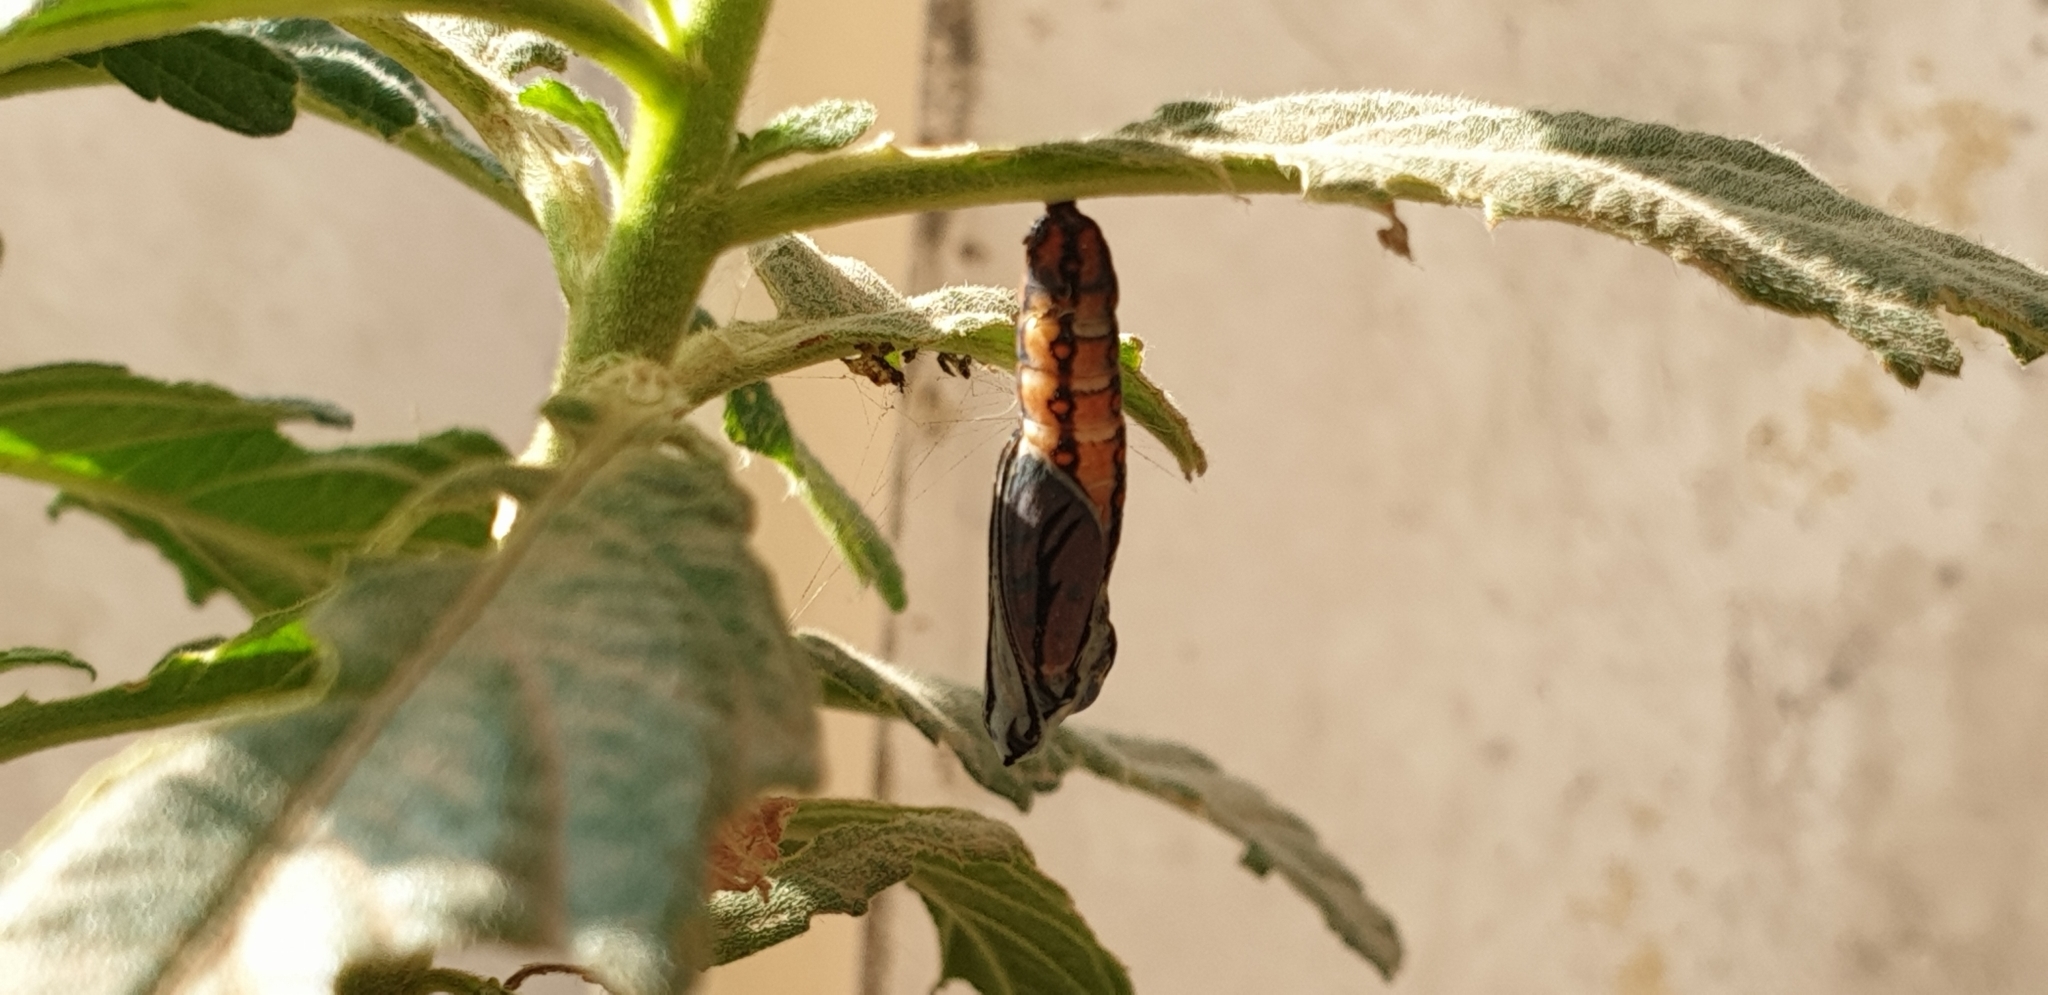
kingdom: Animalia
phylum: Arthropoda
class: Insecta
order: Lepidoptera
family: Nymphalidae
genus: Acraea
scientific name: Acraea terpsicore
